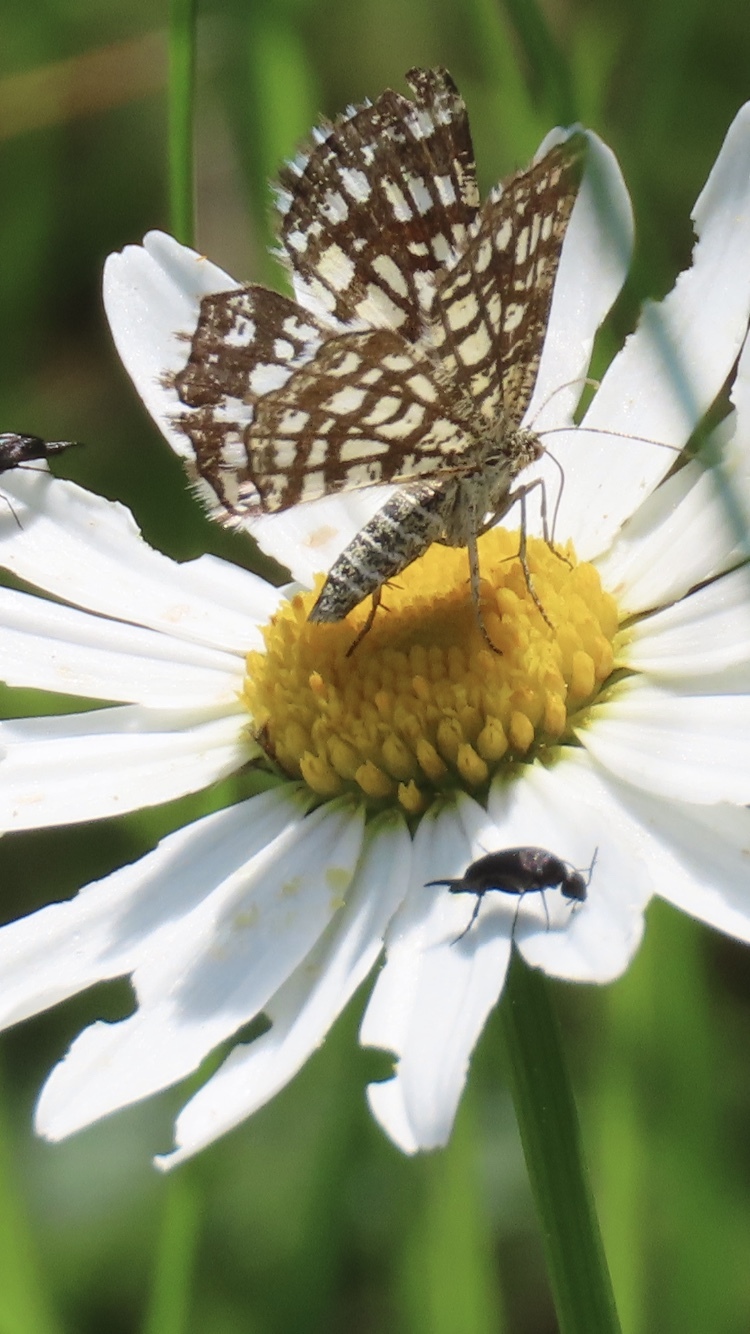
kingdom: Animalia
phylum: Arthropoda
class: Insecta
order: Lepidoptera
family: Geometridae
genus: Chiasmia
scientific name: Chiasmia clathrata
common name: Latticed heath
